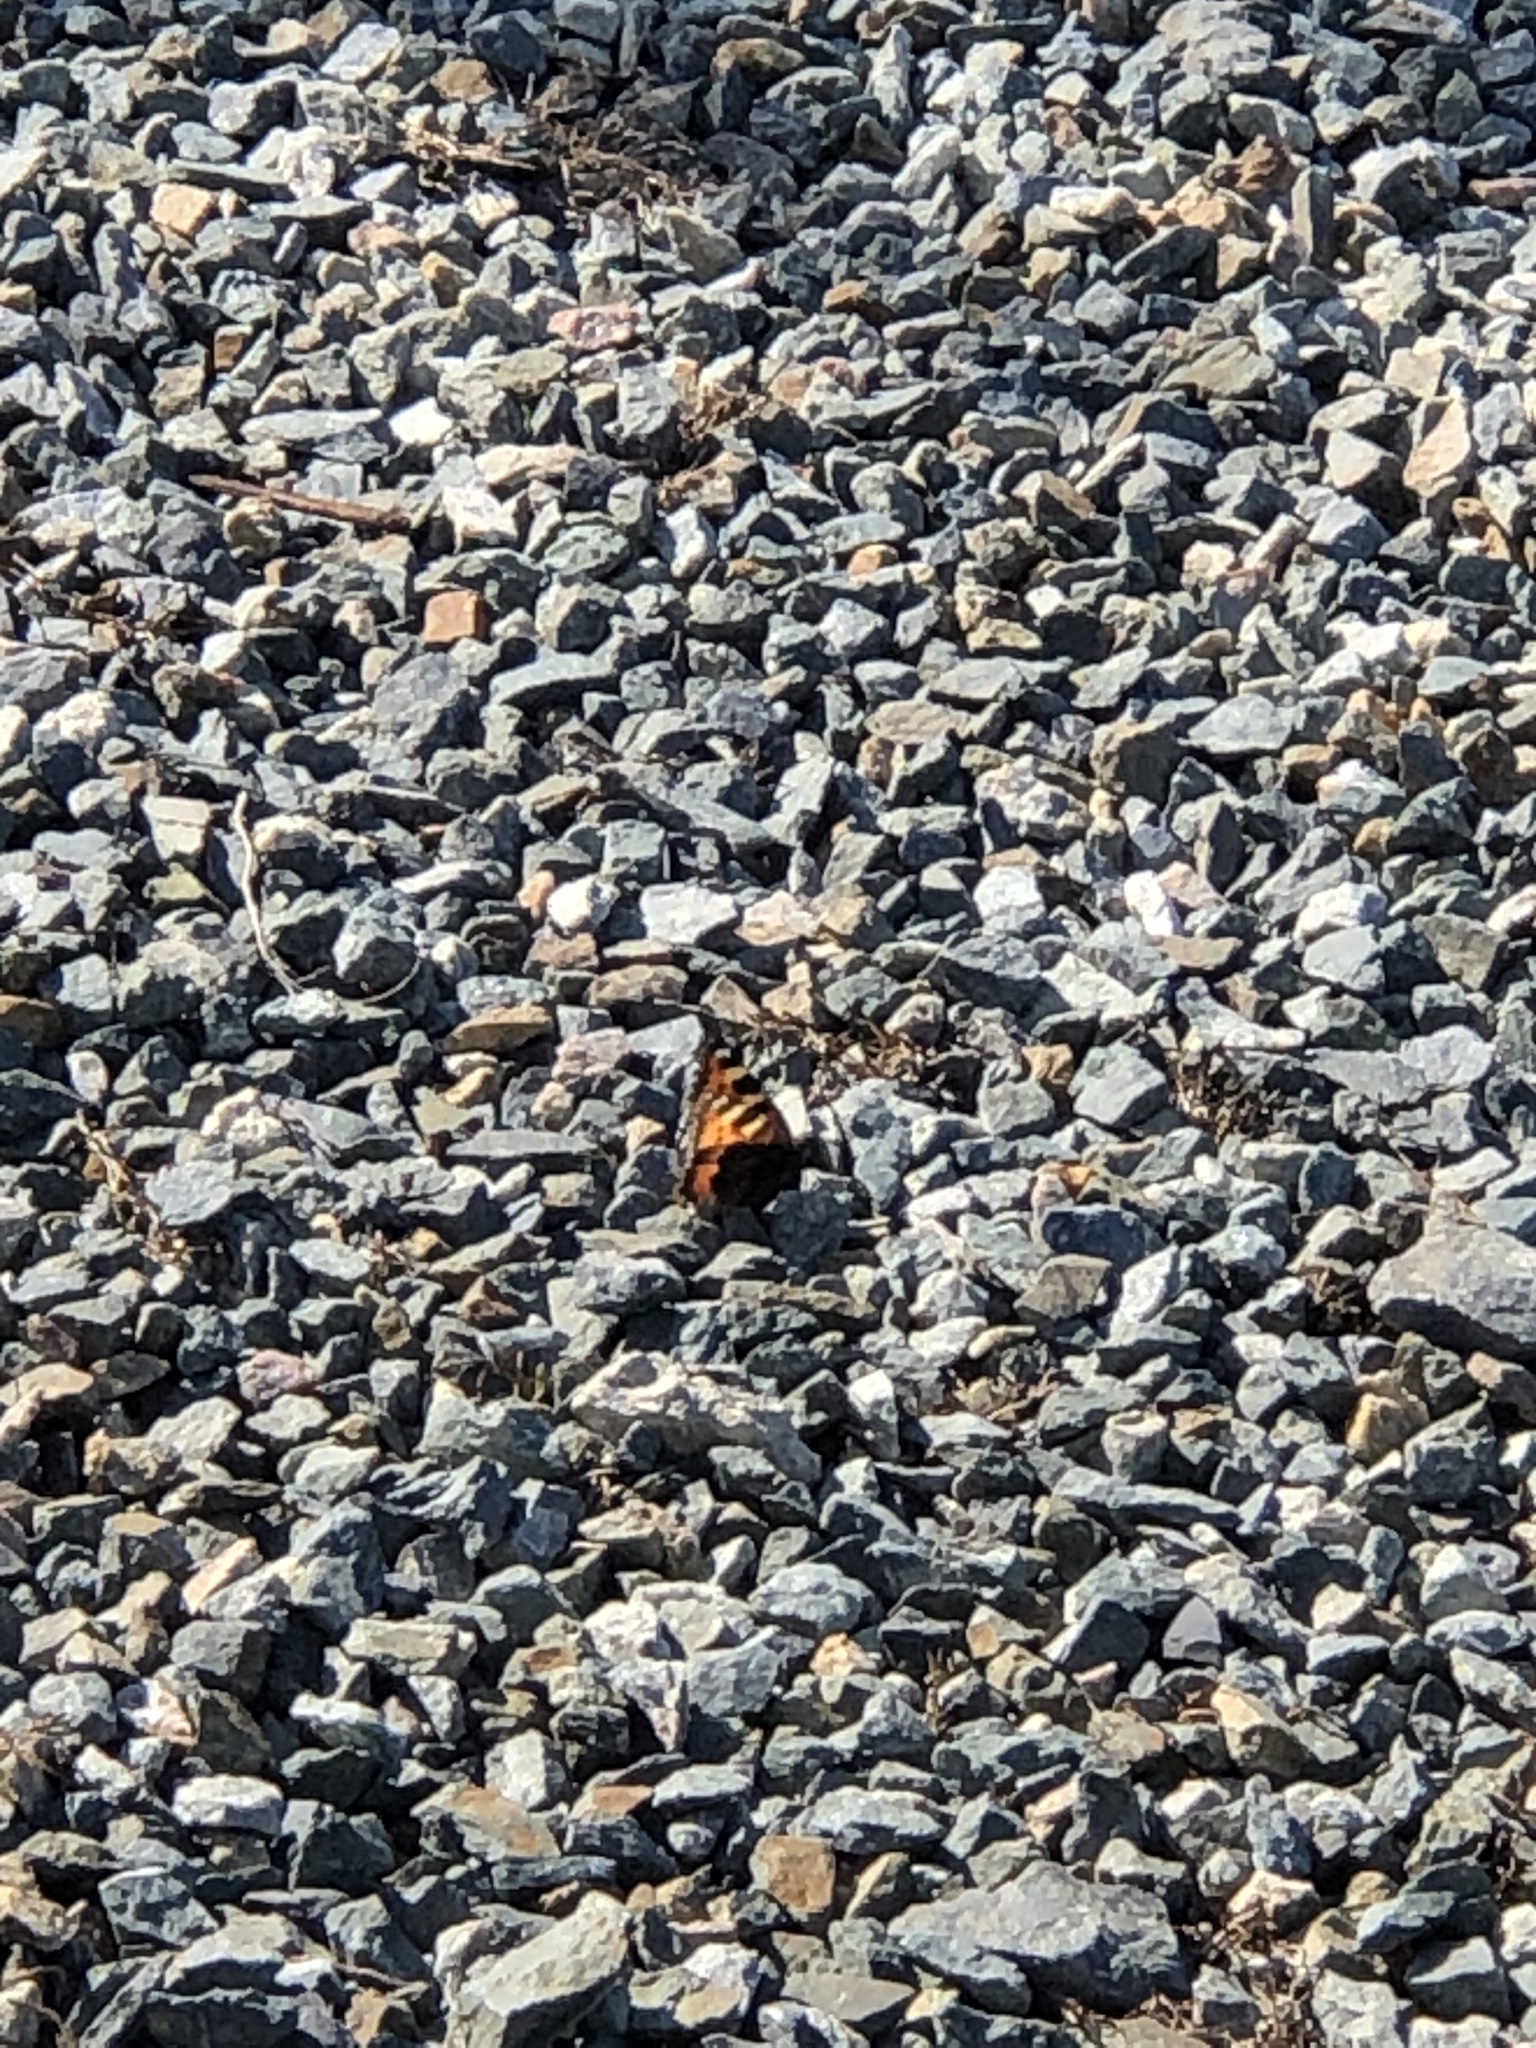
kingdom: Animalia
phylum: Arthropoda
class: Insecta
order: Lepidoptera
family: Nymphalidae
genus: Aglais
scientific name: Aglais urticae
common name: Small tortoiseshell
